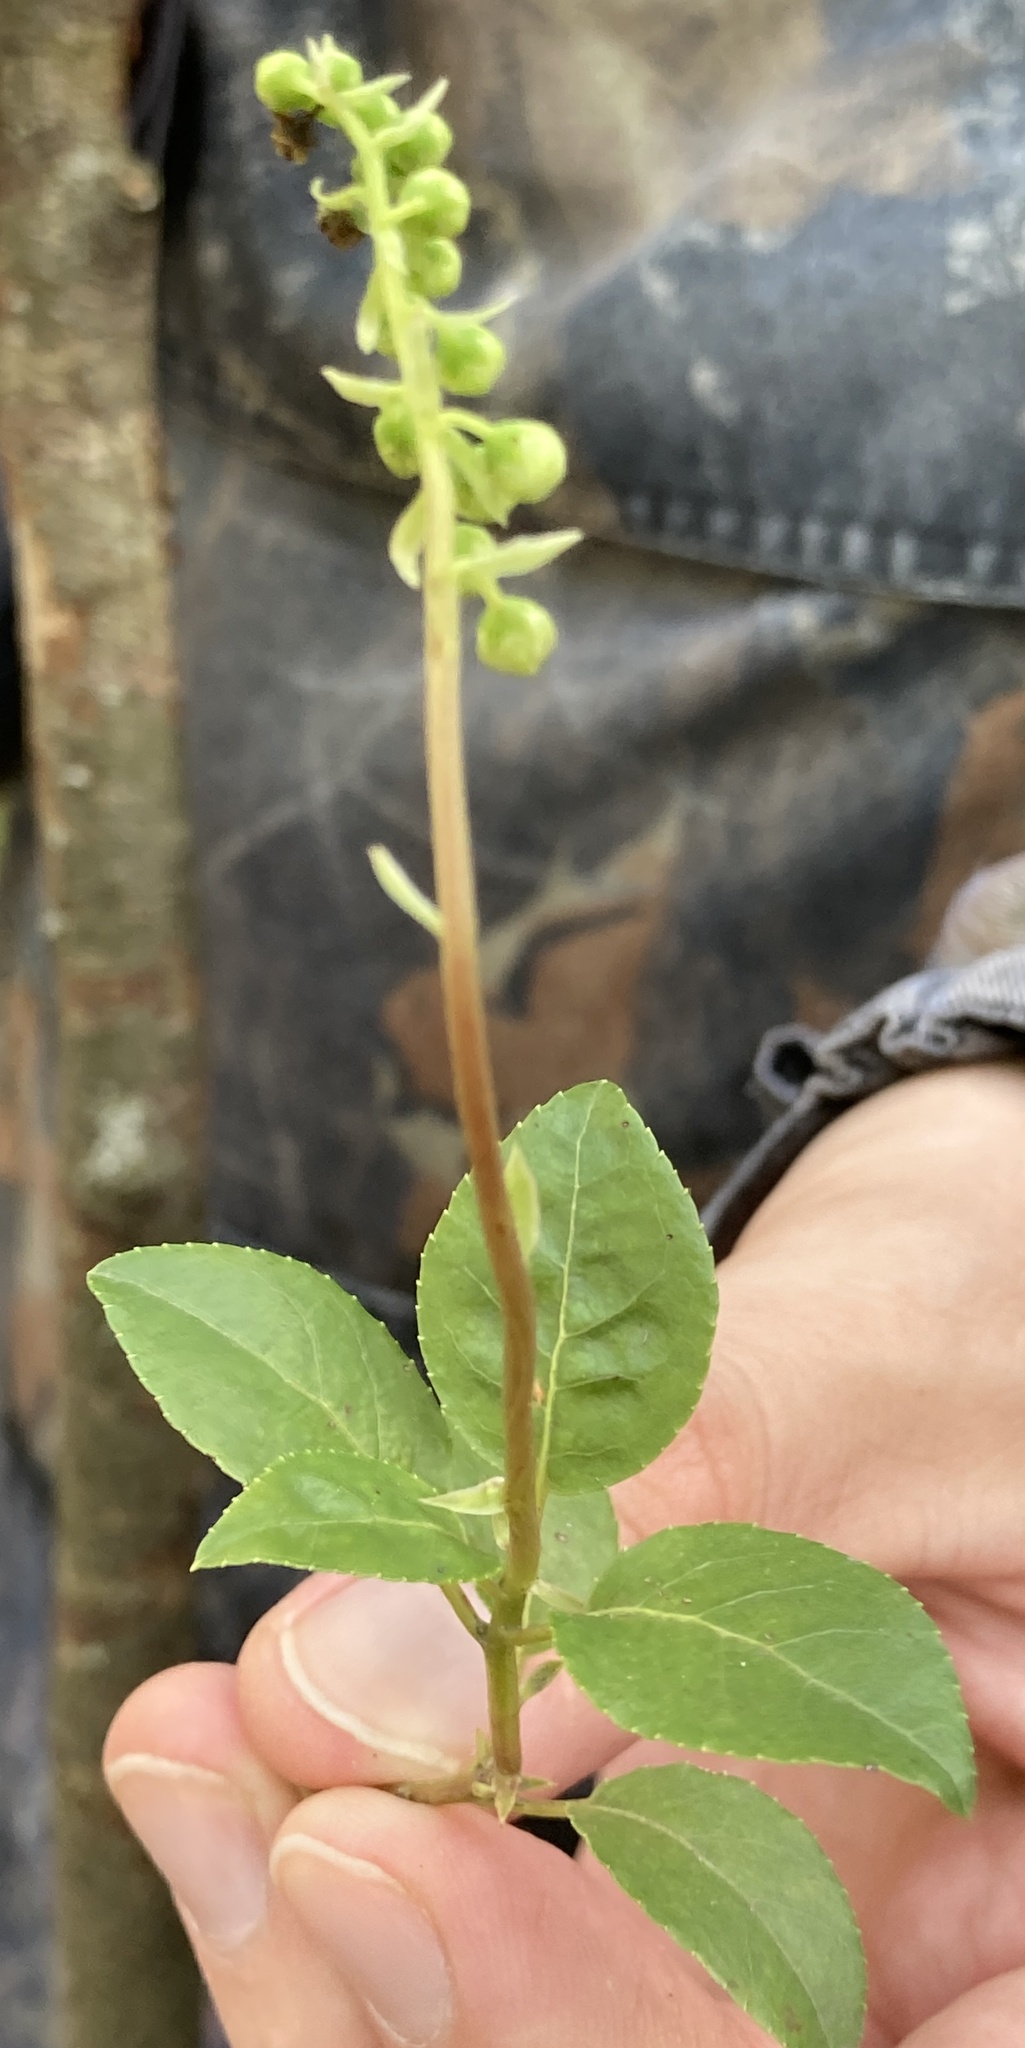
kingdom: Plantae
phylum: Tracheophyta
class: Magnoliopsida
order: Ericales
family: Ericaceae
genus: Orthilia
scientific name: Orthilia secunda
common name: One-sided orthilia
